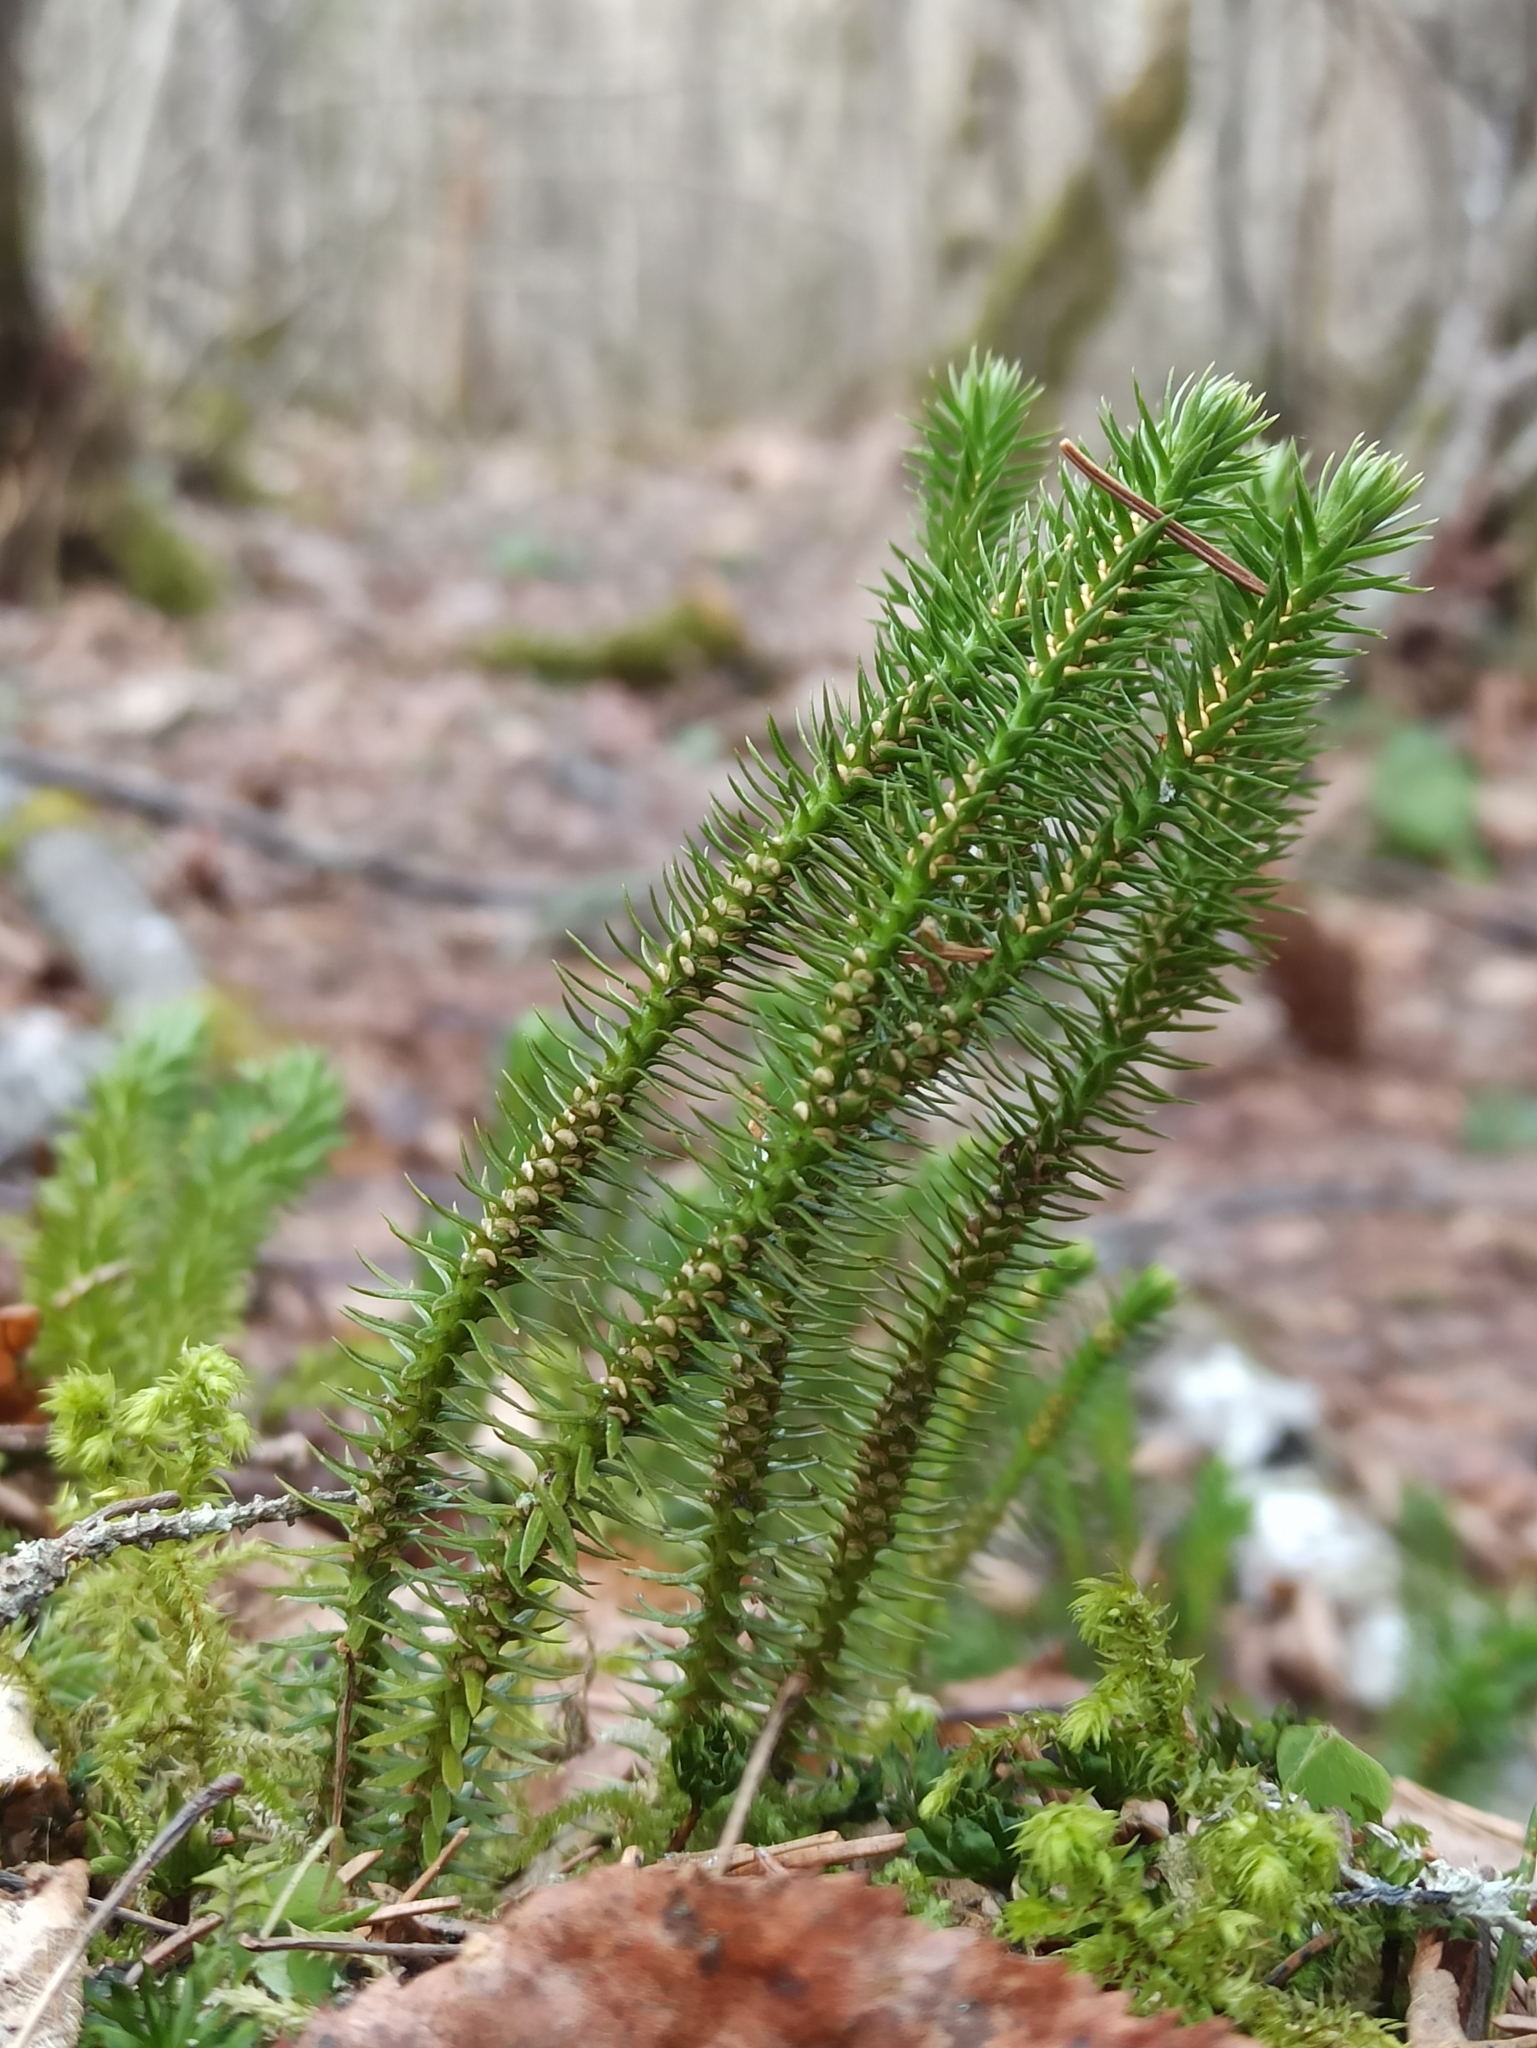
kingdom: Plantae
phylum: Tracheophyta
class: Lycopodiopsida
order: Lycopodiales
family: Lycopodiaceae
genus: Huperzia
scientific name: Huperzia selago
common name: Northern firmoss
